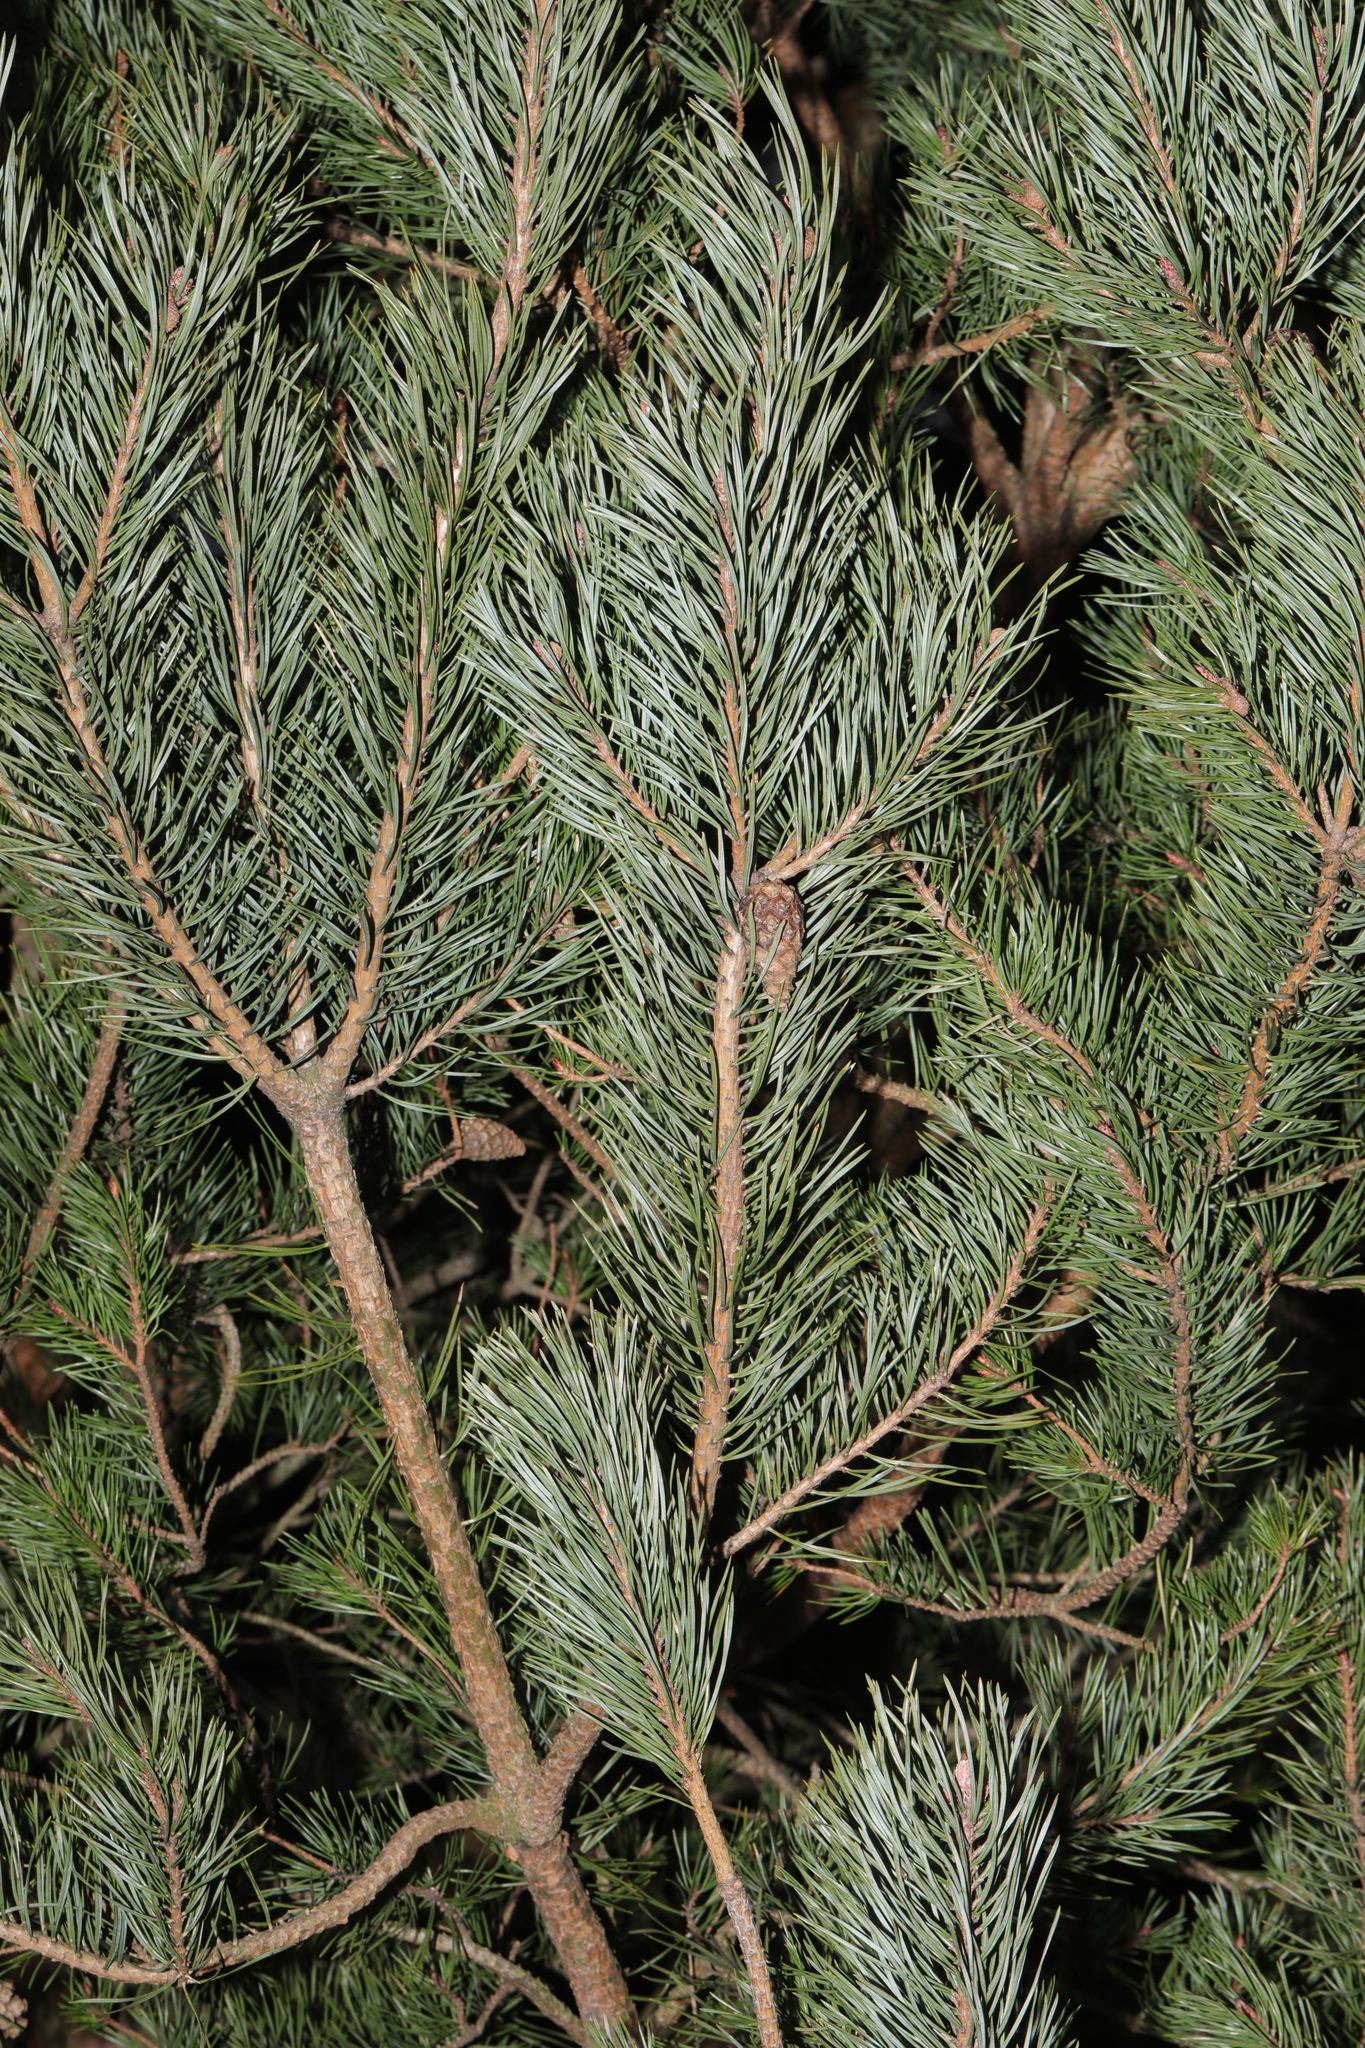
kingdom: Plantae
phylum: Tracheophyta
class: Pinopsida
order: Pinales
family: Pinaceae
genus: Pinus
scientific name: Pinus sylvestris
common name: Scots pine
